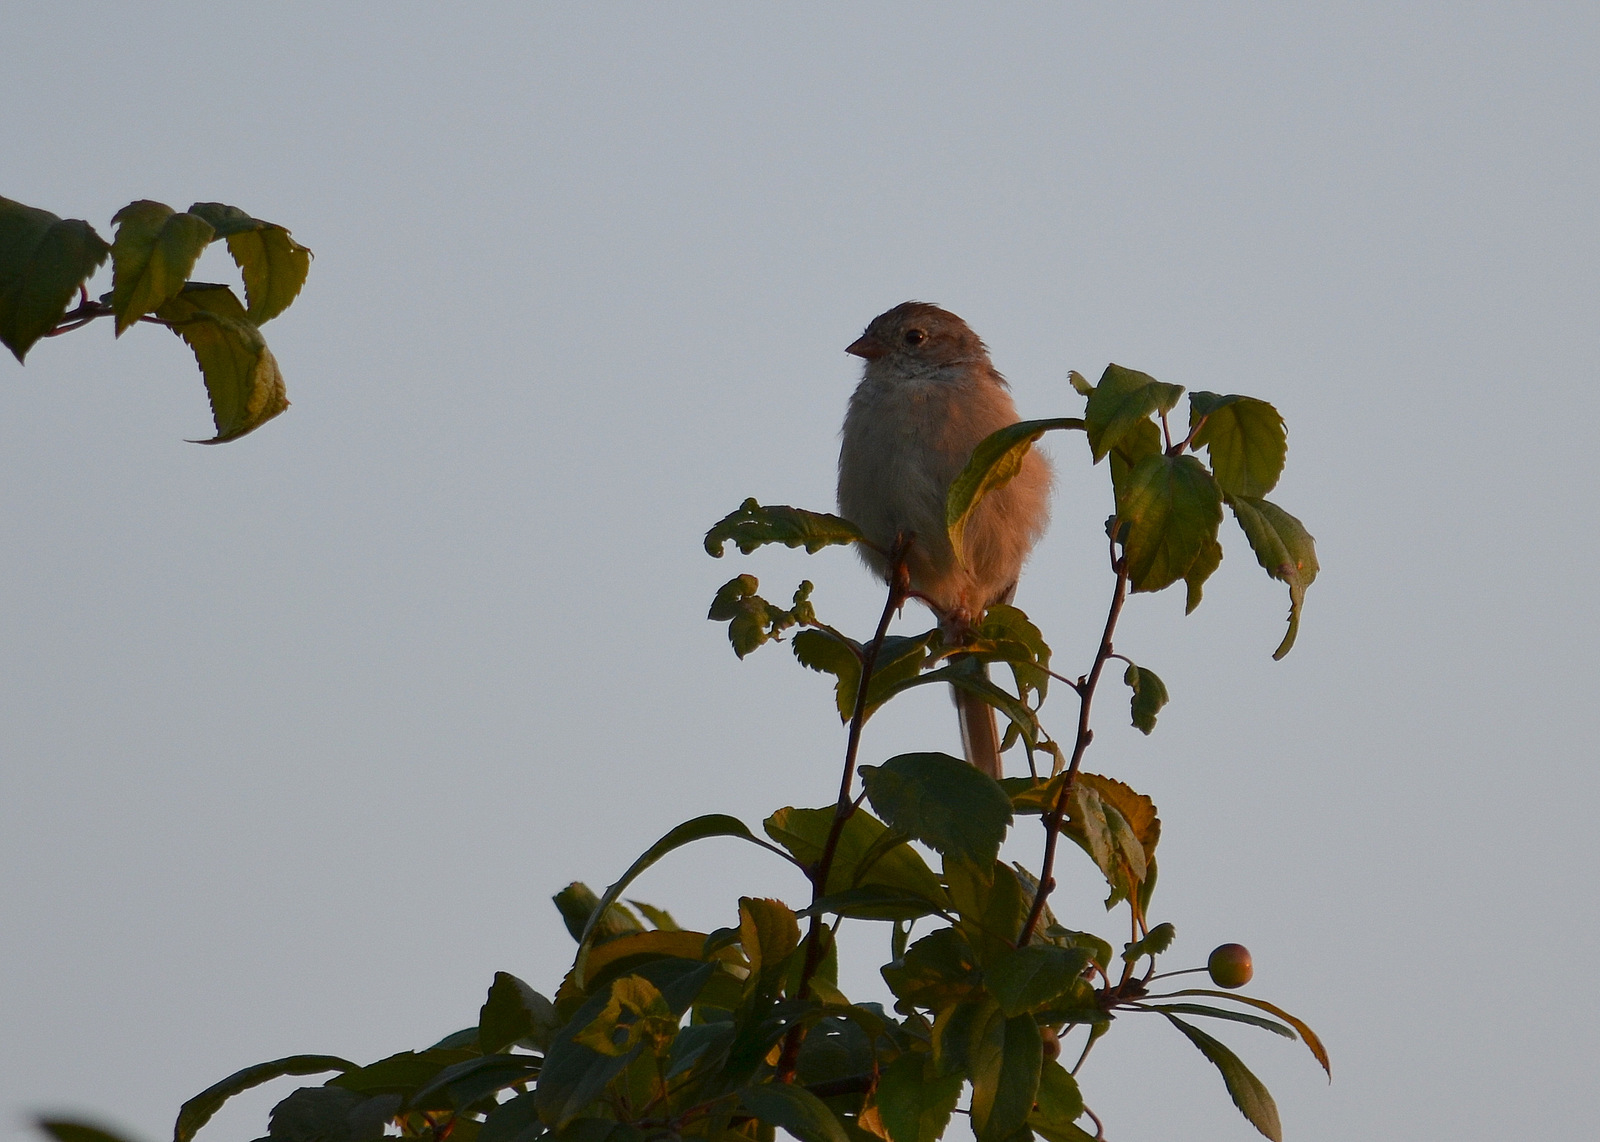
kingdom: Animalia
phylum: Chordata
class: Aves
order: Passeriformes
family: Passerellidae
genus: Spizella
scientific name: Spizella pusilla
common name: Field sparrow
